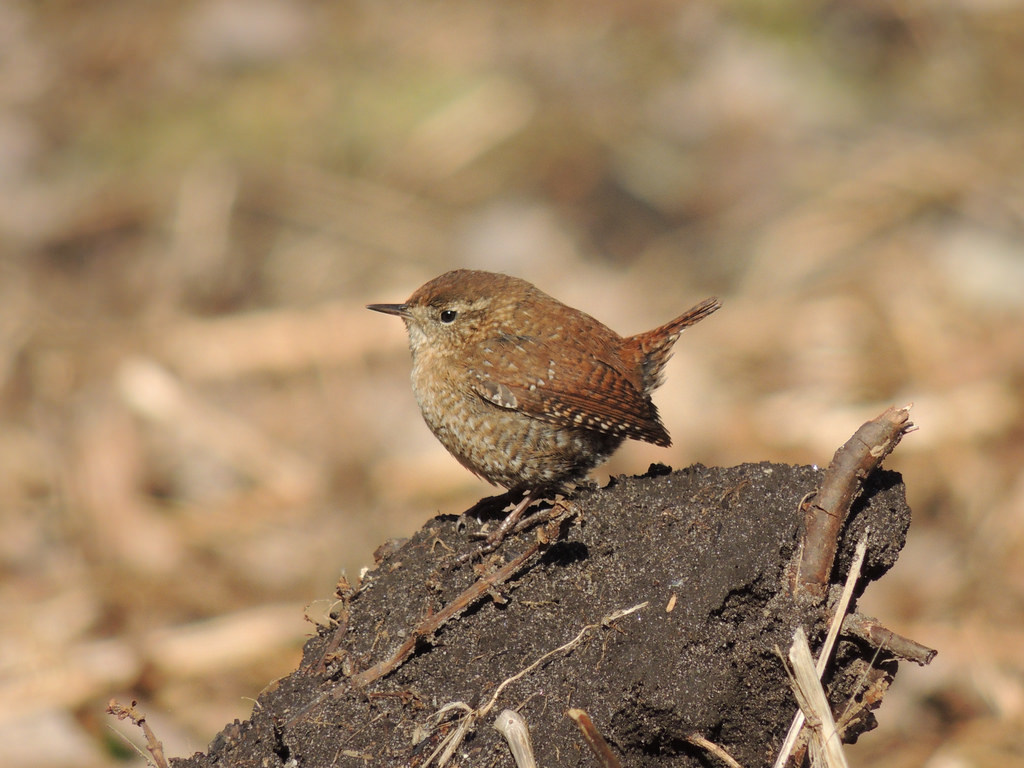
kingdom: Animalia
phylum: Chordata
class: Aves
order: Passeriformes
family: Troglodytidae
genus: Troglodytes
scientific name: Troglodytes hiemalis
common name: Winter wren
